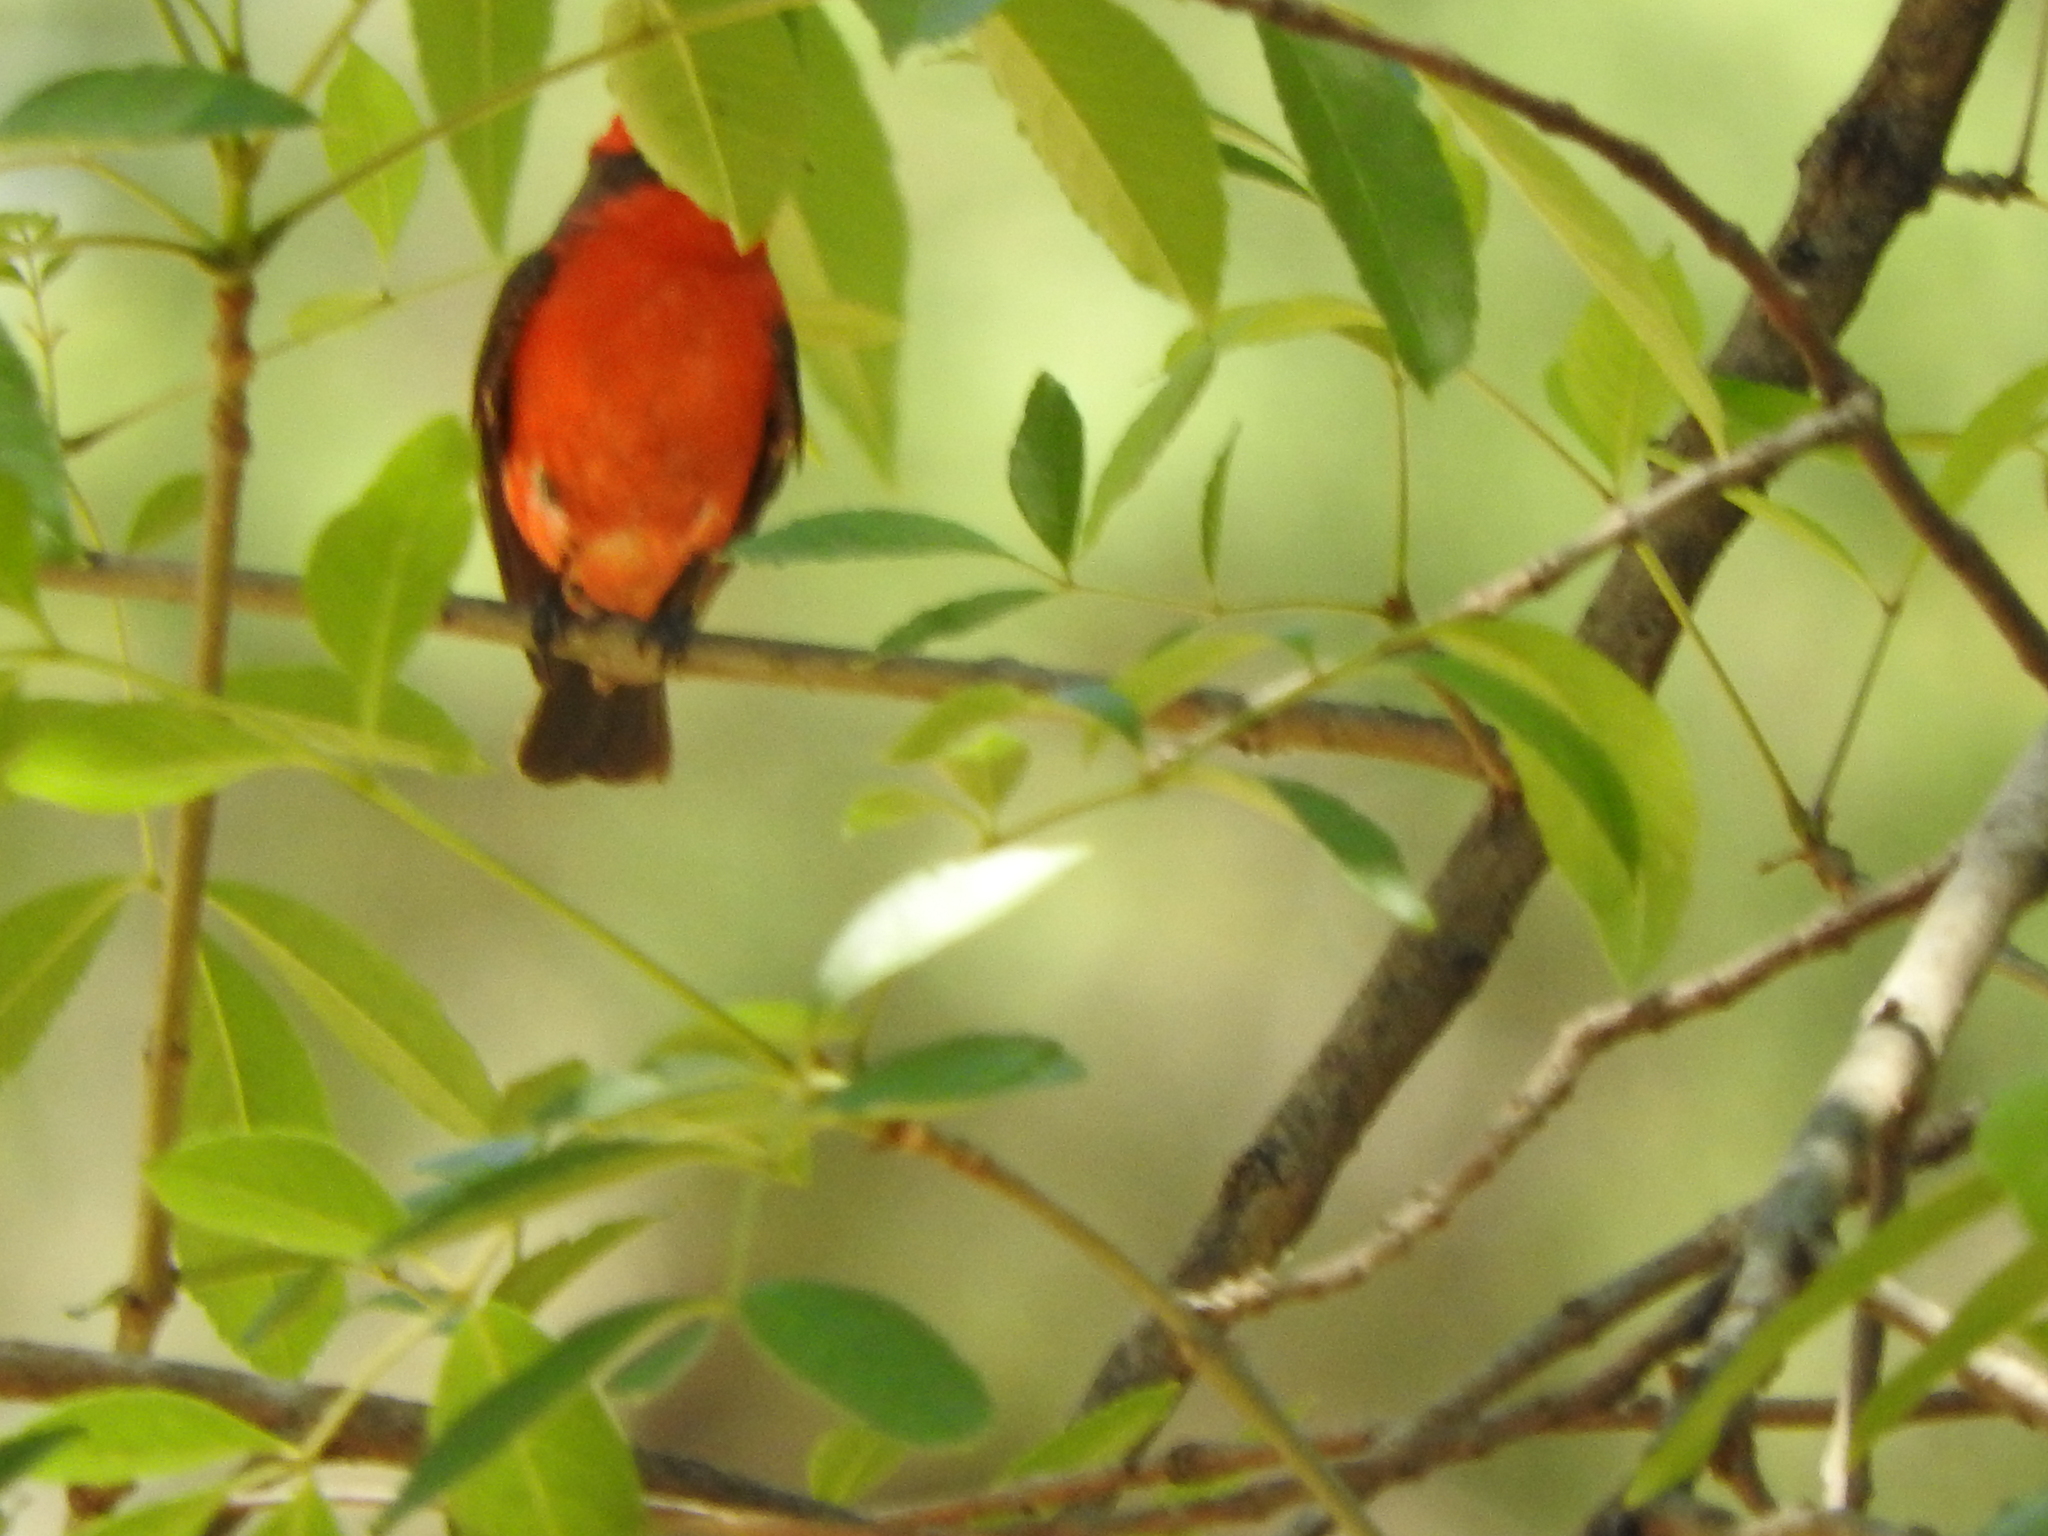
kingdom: Animalia
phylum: Chordata
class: Aves
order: Passeriformes
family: Tyrannidae
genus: Pyrocephalus
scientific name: Pyrocephalus rubinus
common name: Vermilion flycatcher
